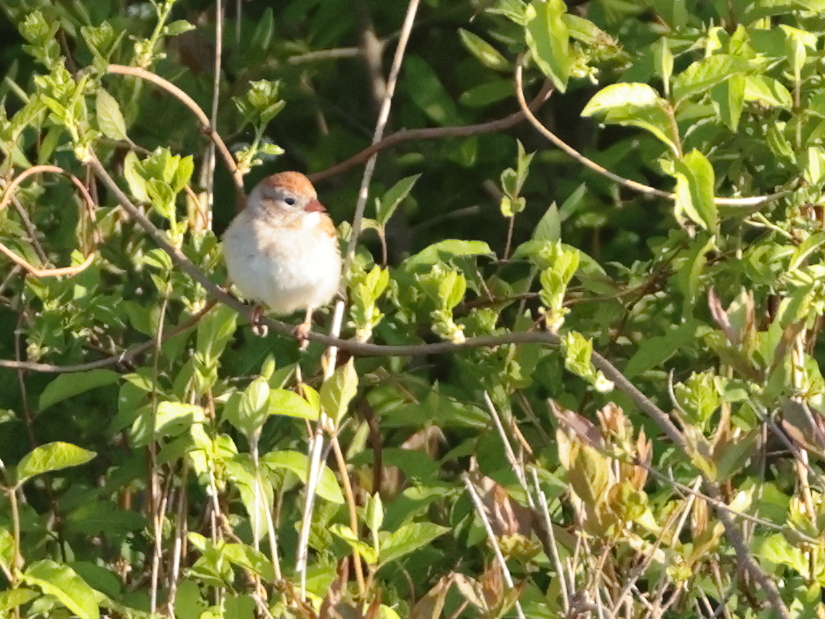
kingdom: Animalia
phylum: Chordata
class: Aves
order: Passeriformes
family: Passerellidae
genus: Spizella
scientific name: Spizella pusilla
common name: Field sparrow
